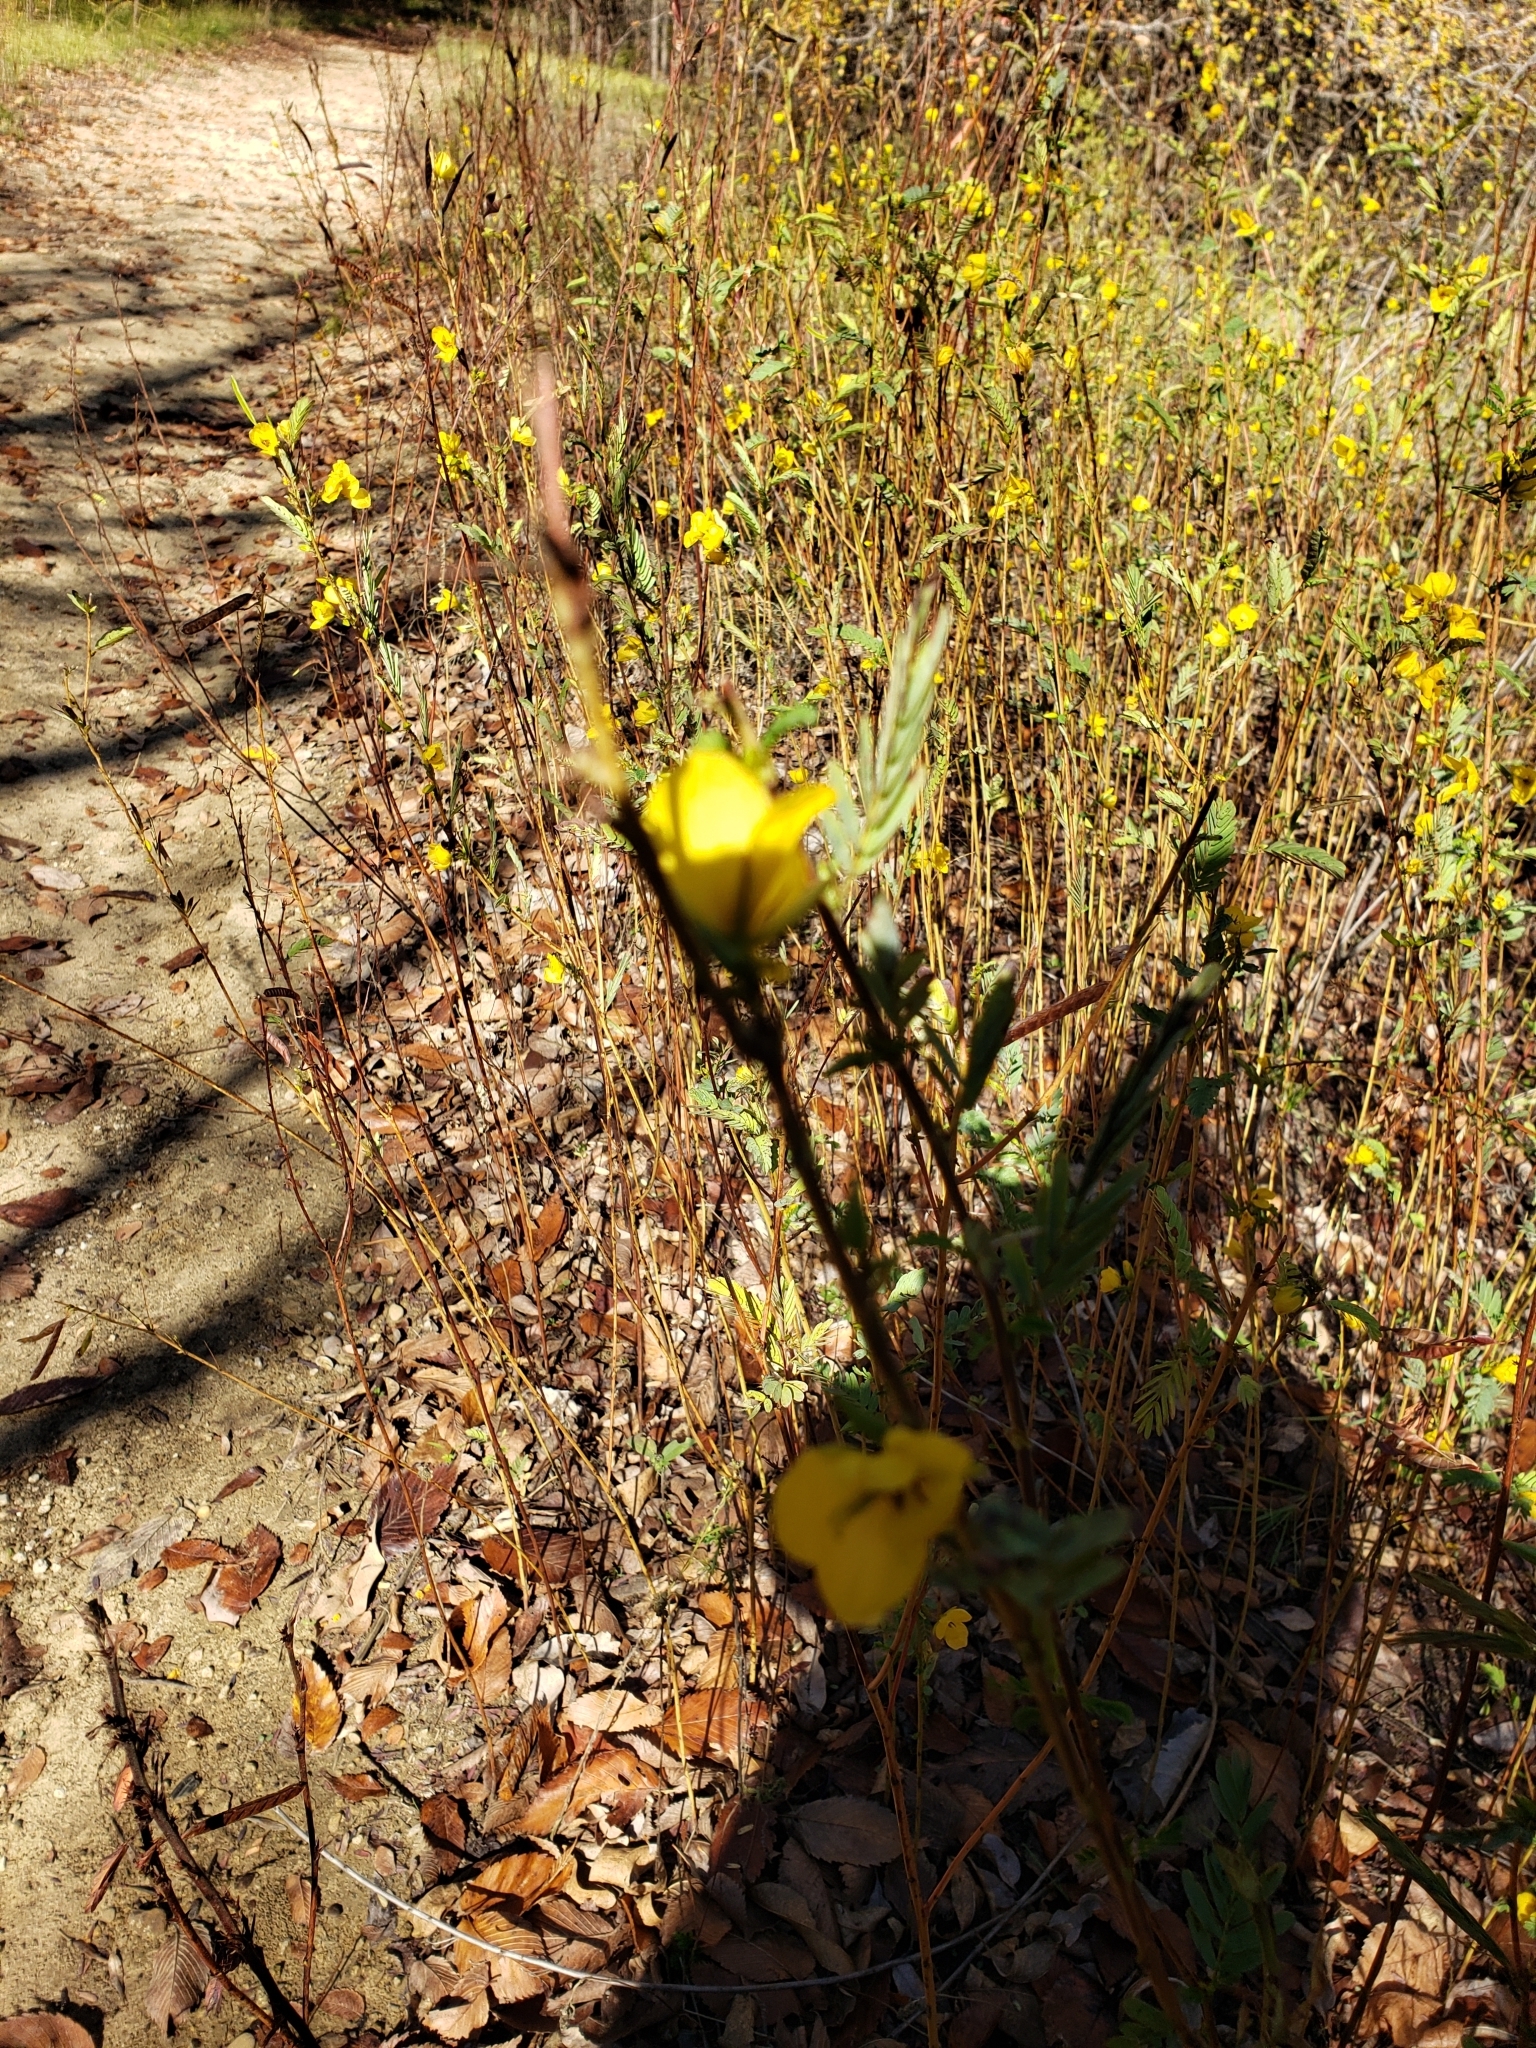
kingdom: Plantae
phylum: Tracheophyta
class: Magnoliopsida
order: Fabales
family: Fabaceae
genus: Chamaecrista
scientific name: Chamaecrista fasciculata
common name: Golden cassia
